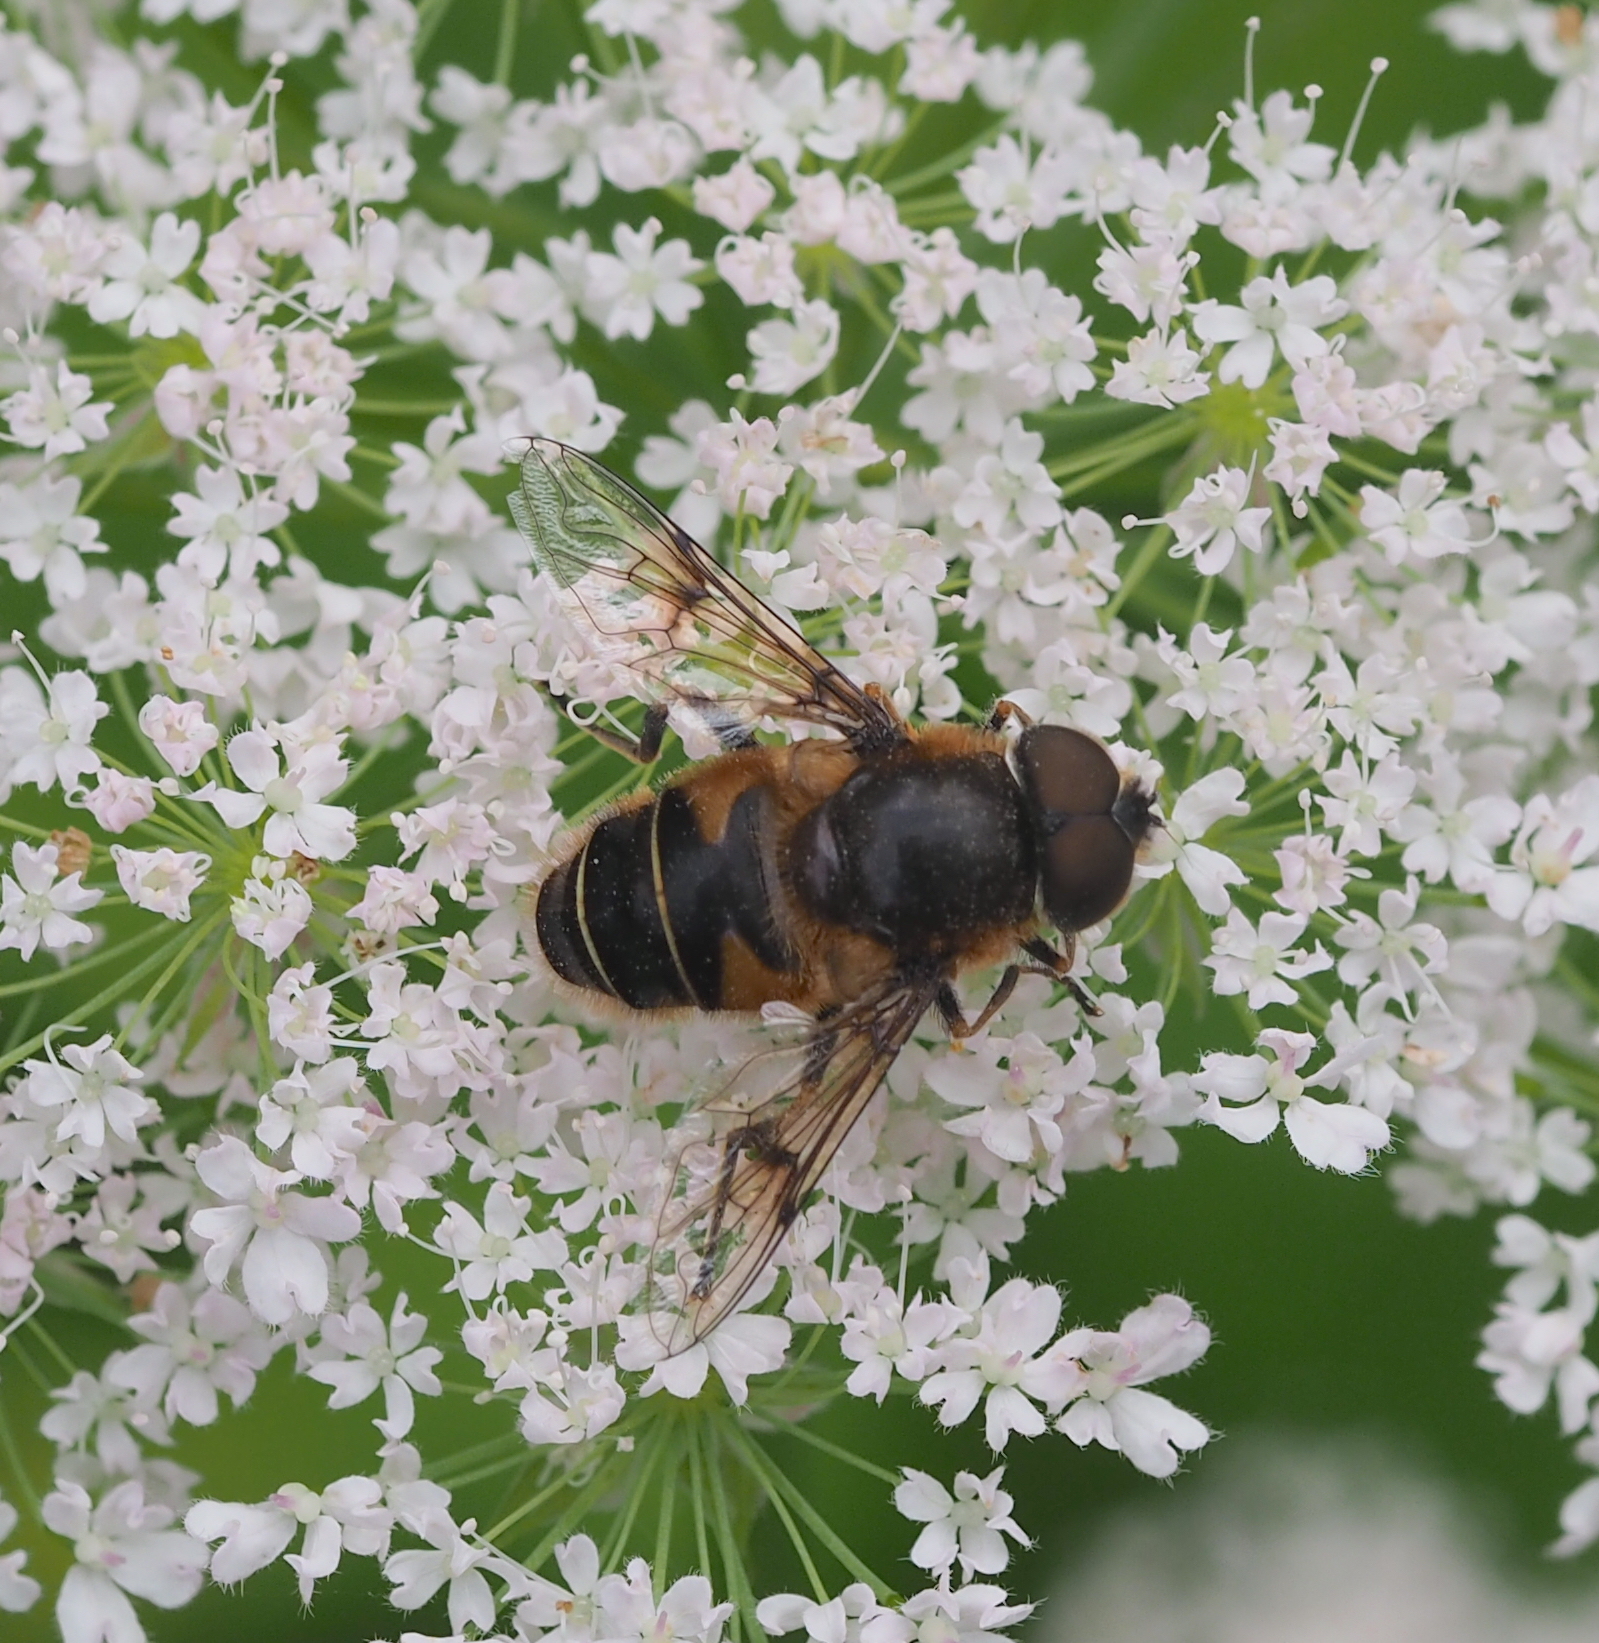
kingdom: Animalia
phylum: Arthropoda
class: Insecta
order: Diptera
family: Syrphidae
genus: Eristalis
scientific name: Eristalis rupium
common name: Hover fly
